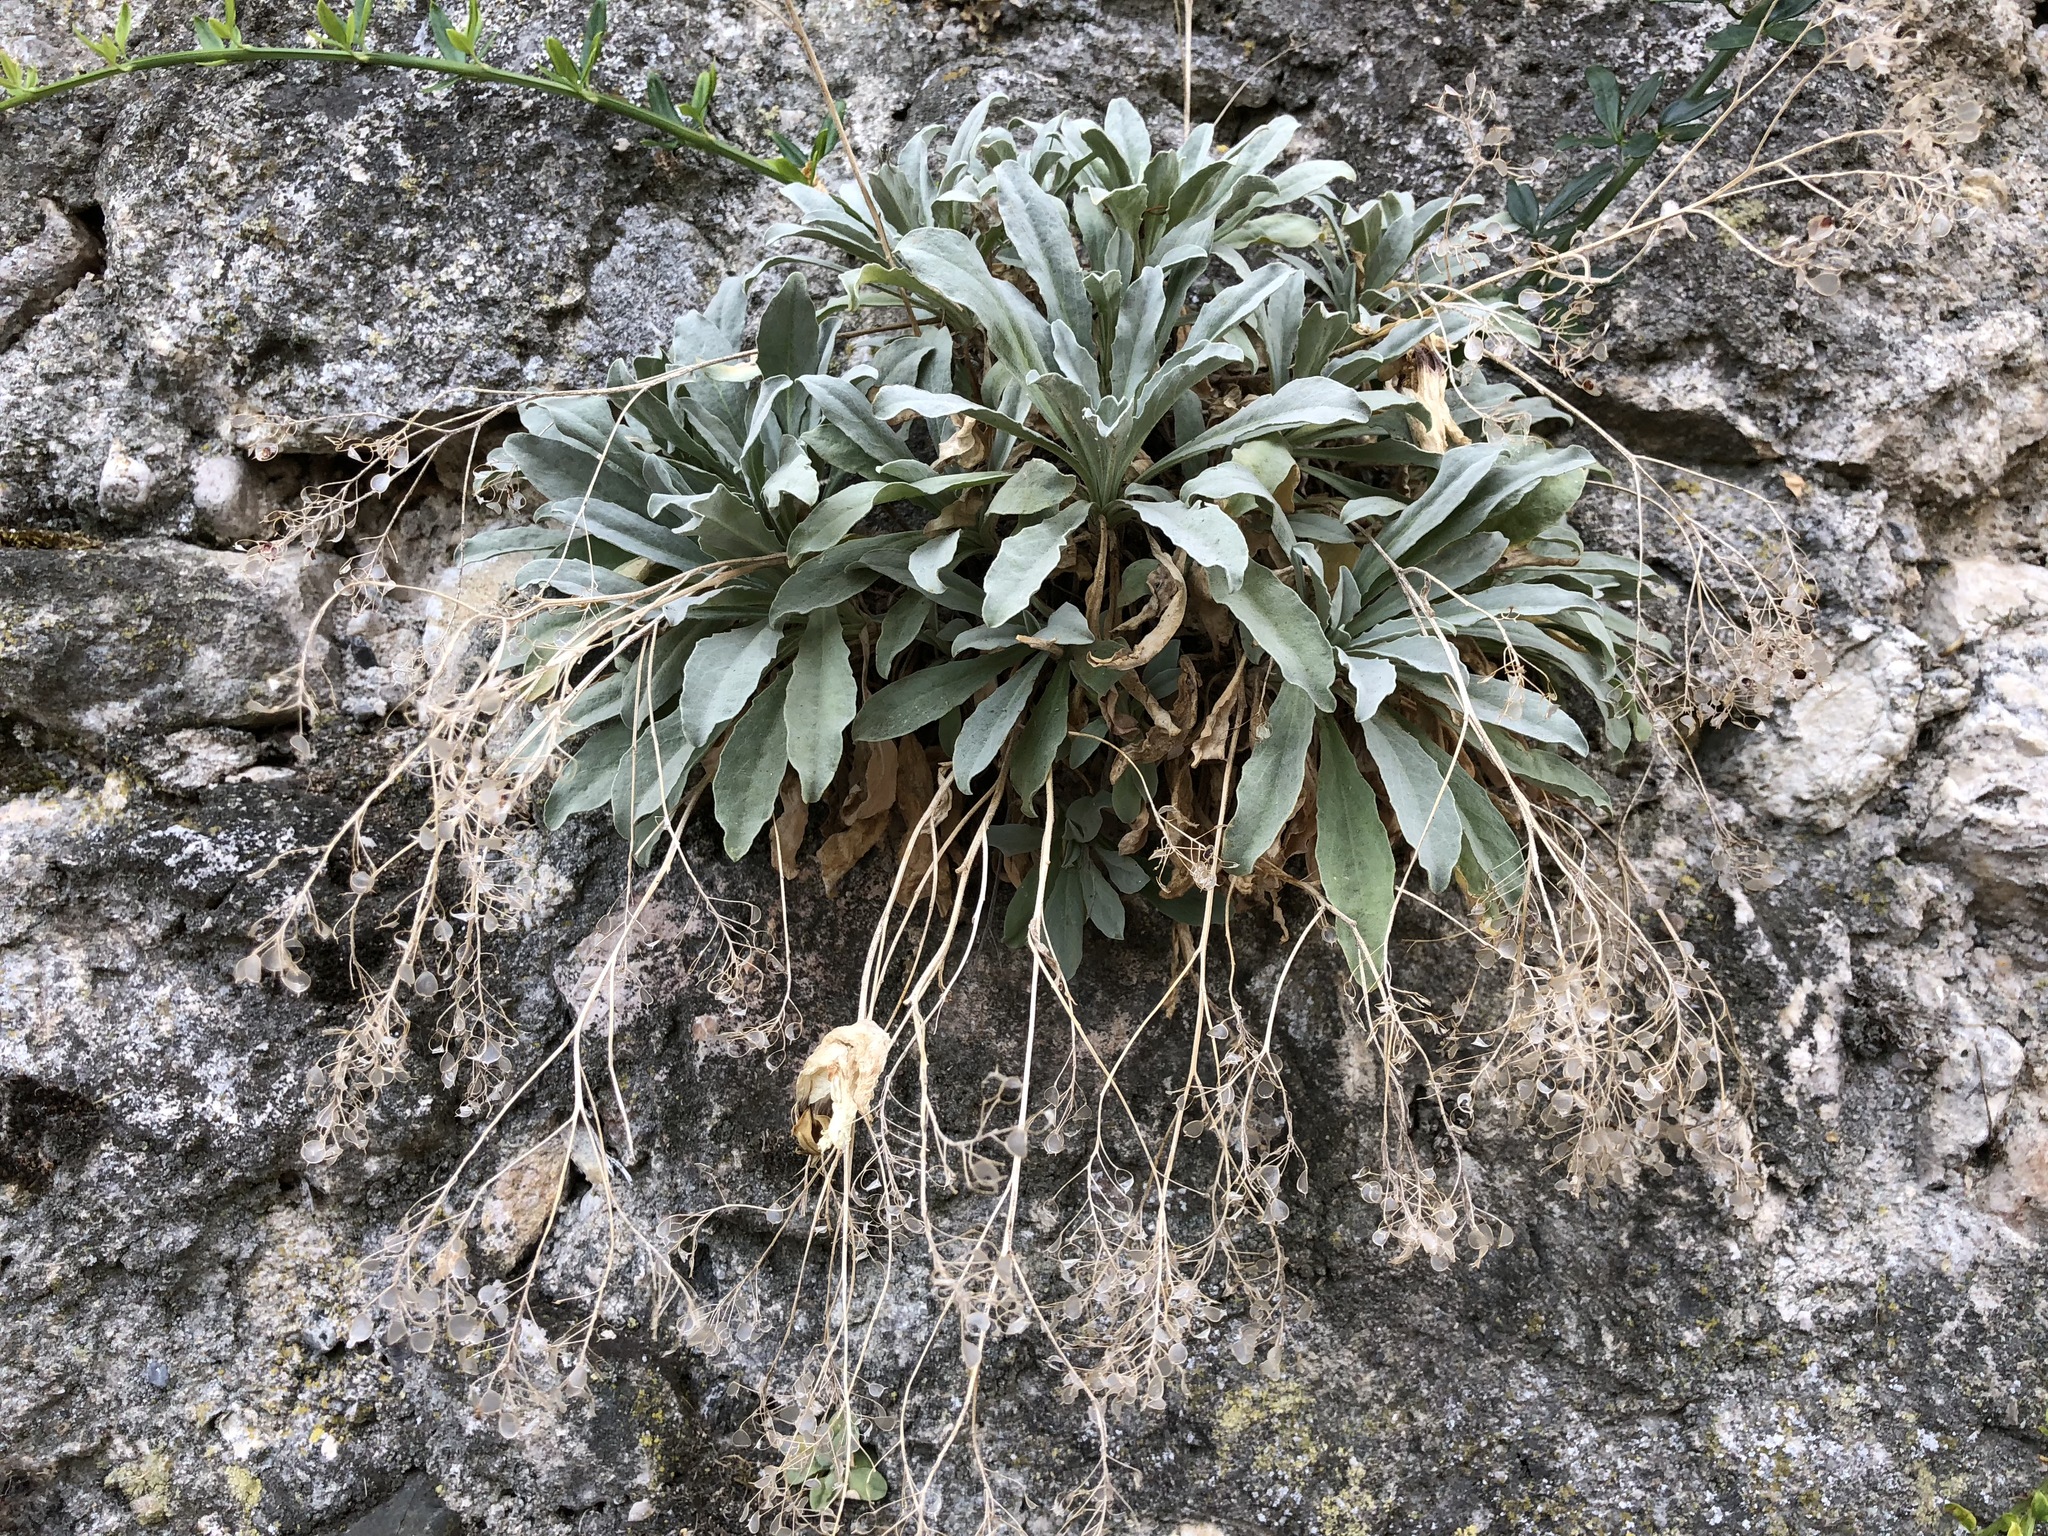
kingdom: Plantae
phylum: Tracheophyta
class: Magnoliopsida
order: Brassicales
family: Brassicaceae
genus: Aurinia
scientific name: Aurinia saxatilis
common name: Golden-tuft alyssum
